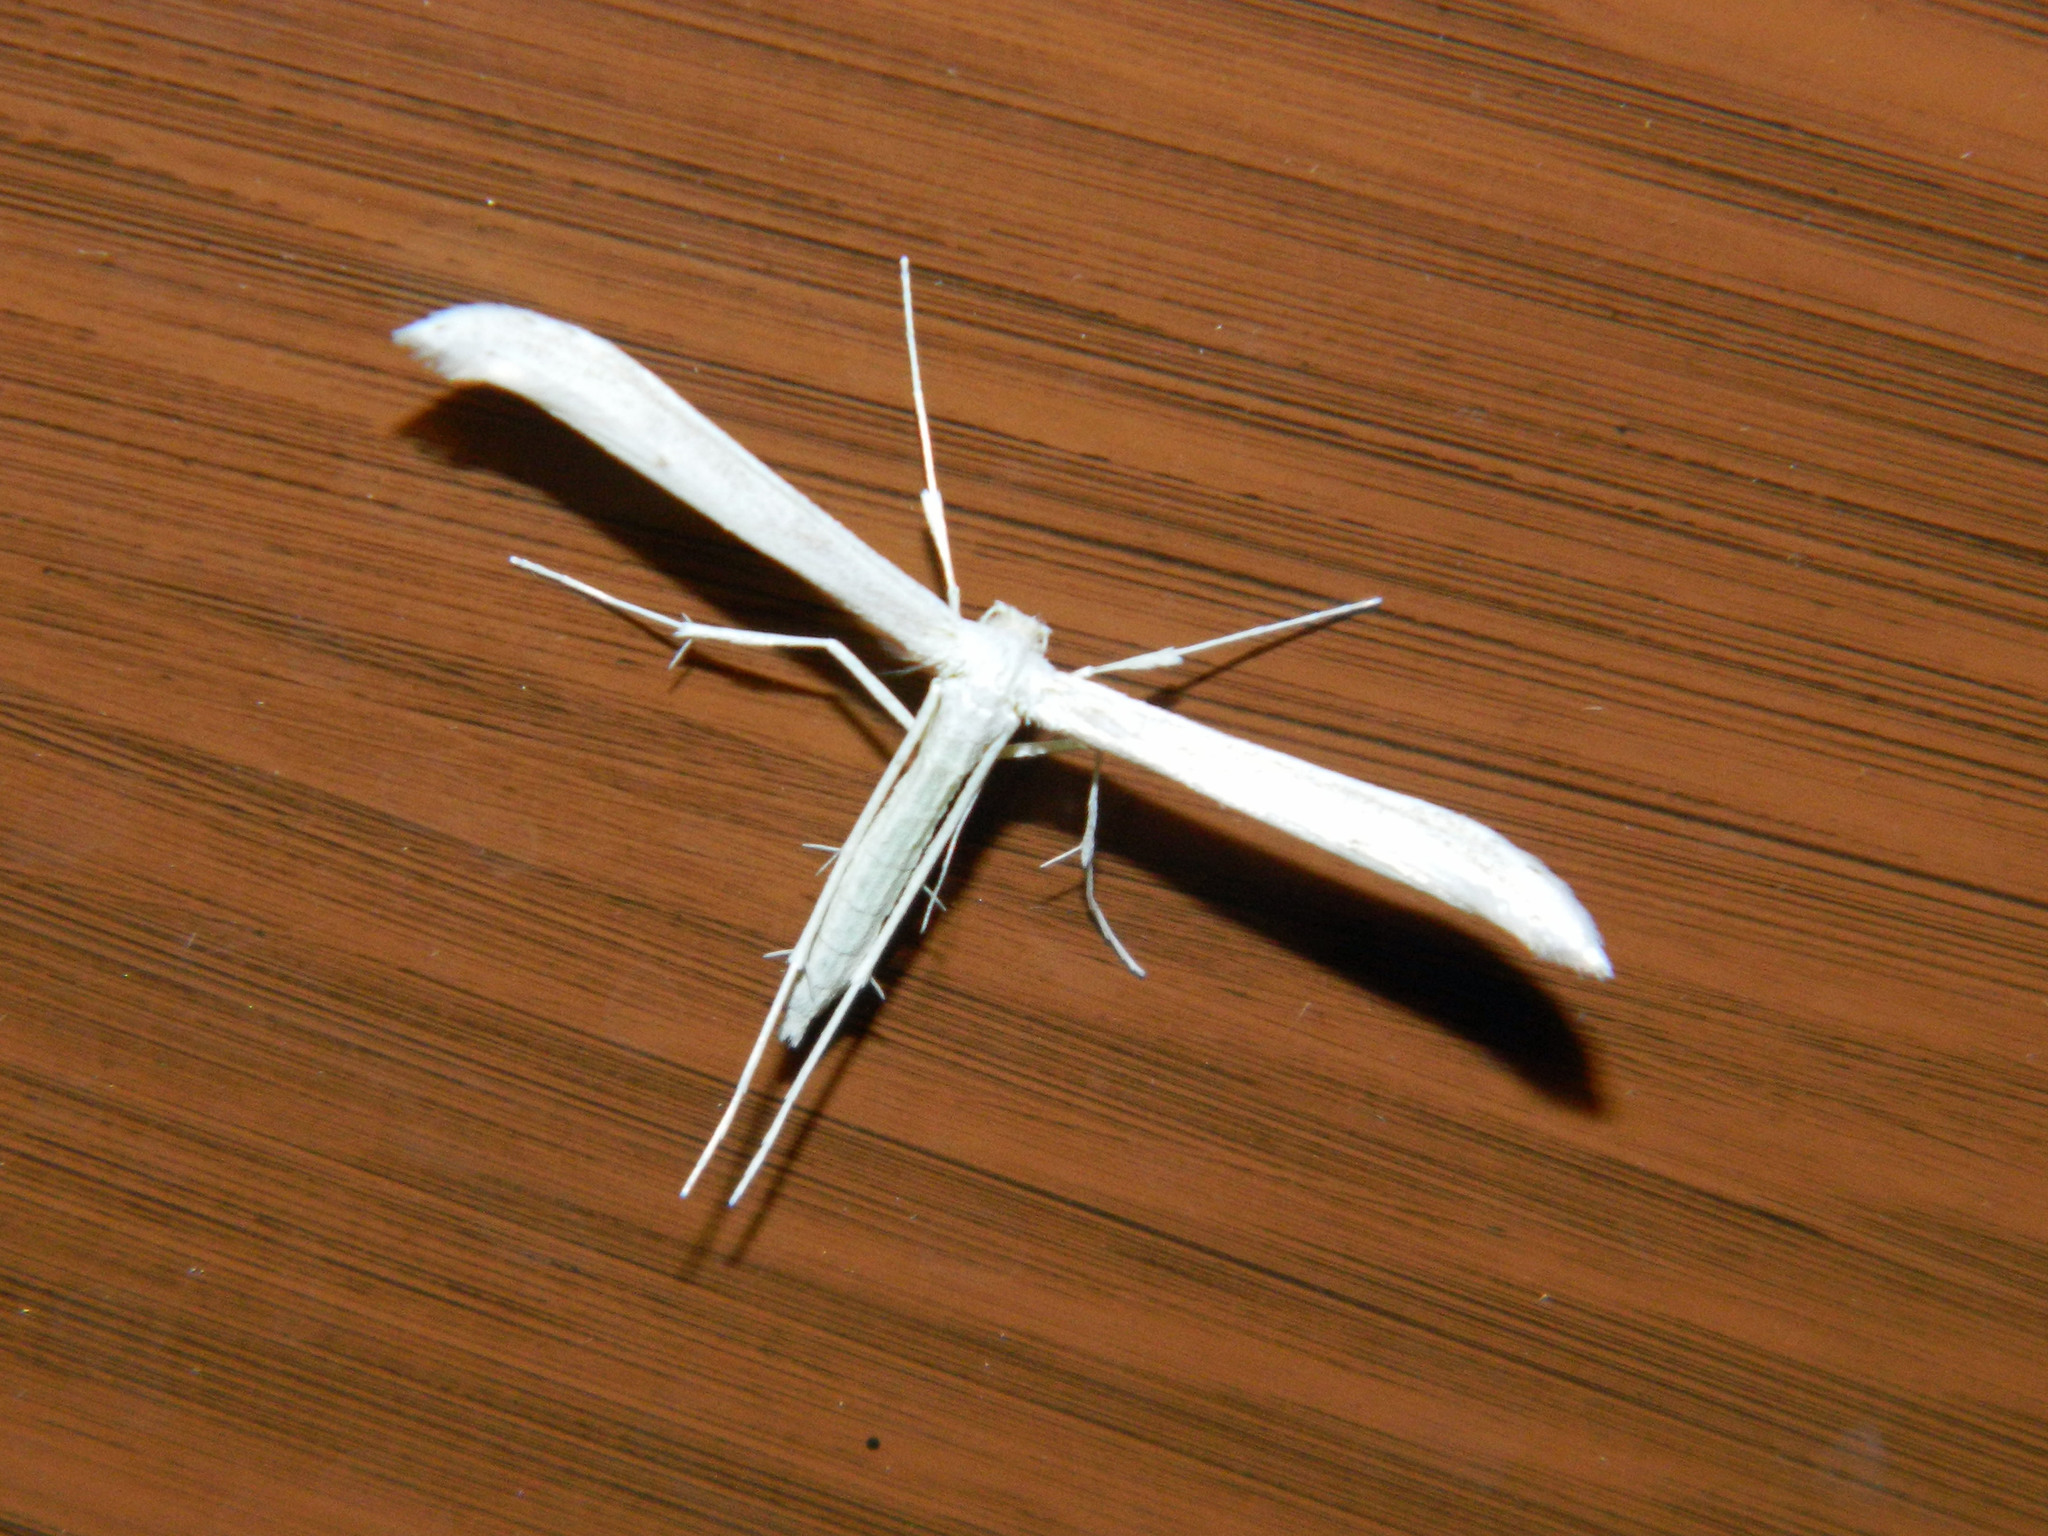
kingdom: Animalia
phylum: Arthropoda
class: Insecta
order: Lepidoptera
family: Pterophoridae
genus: Hellinsia
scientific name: Hellinsia homodactylus
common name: Plain plume moth
